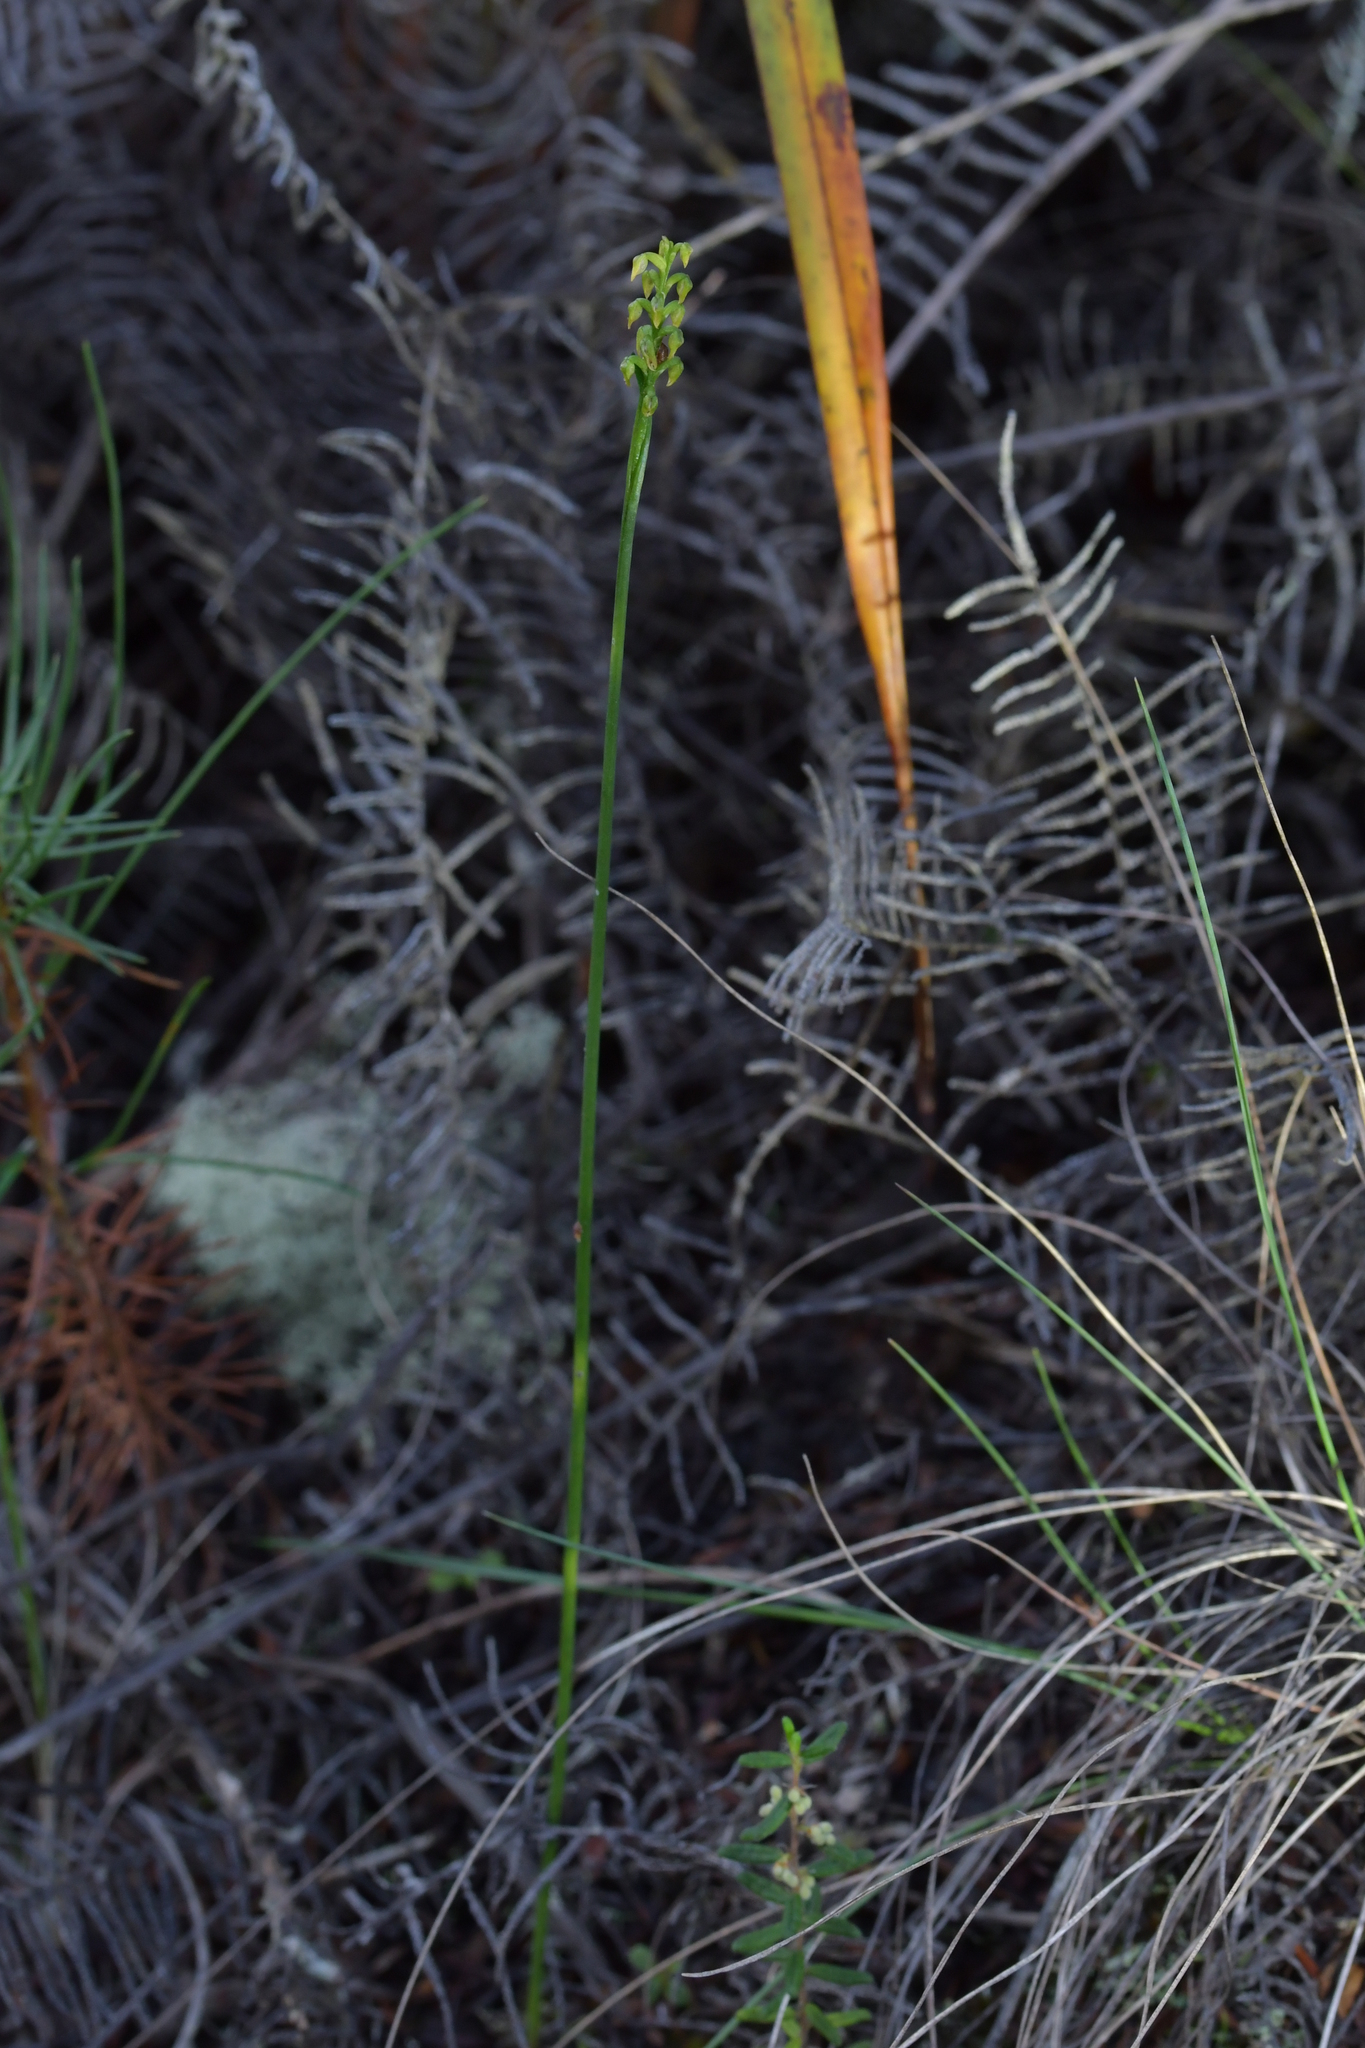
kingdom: Plantae
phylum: Tracheophyta
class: Liliopsida
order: Asparagales
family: Orchidaceae
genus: Genoplesium
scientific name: Genoplesium pumilum
